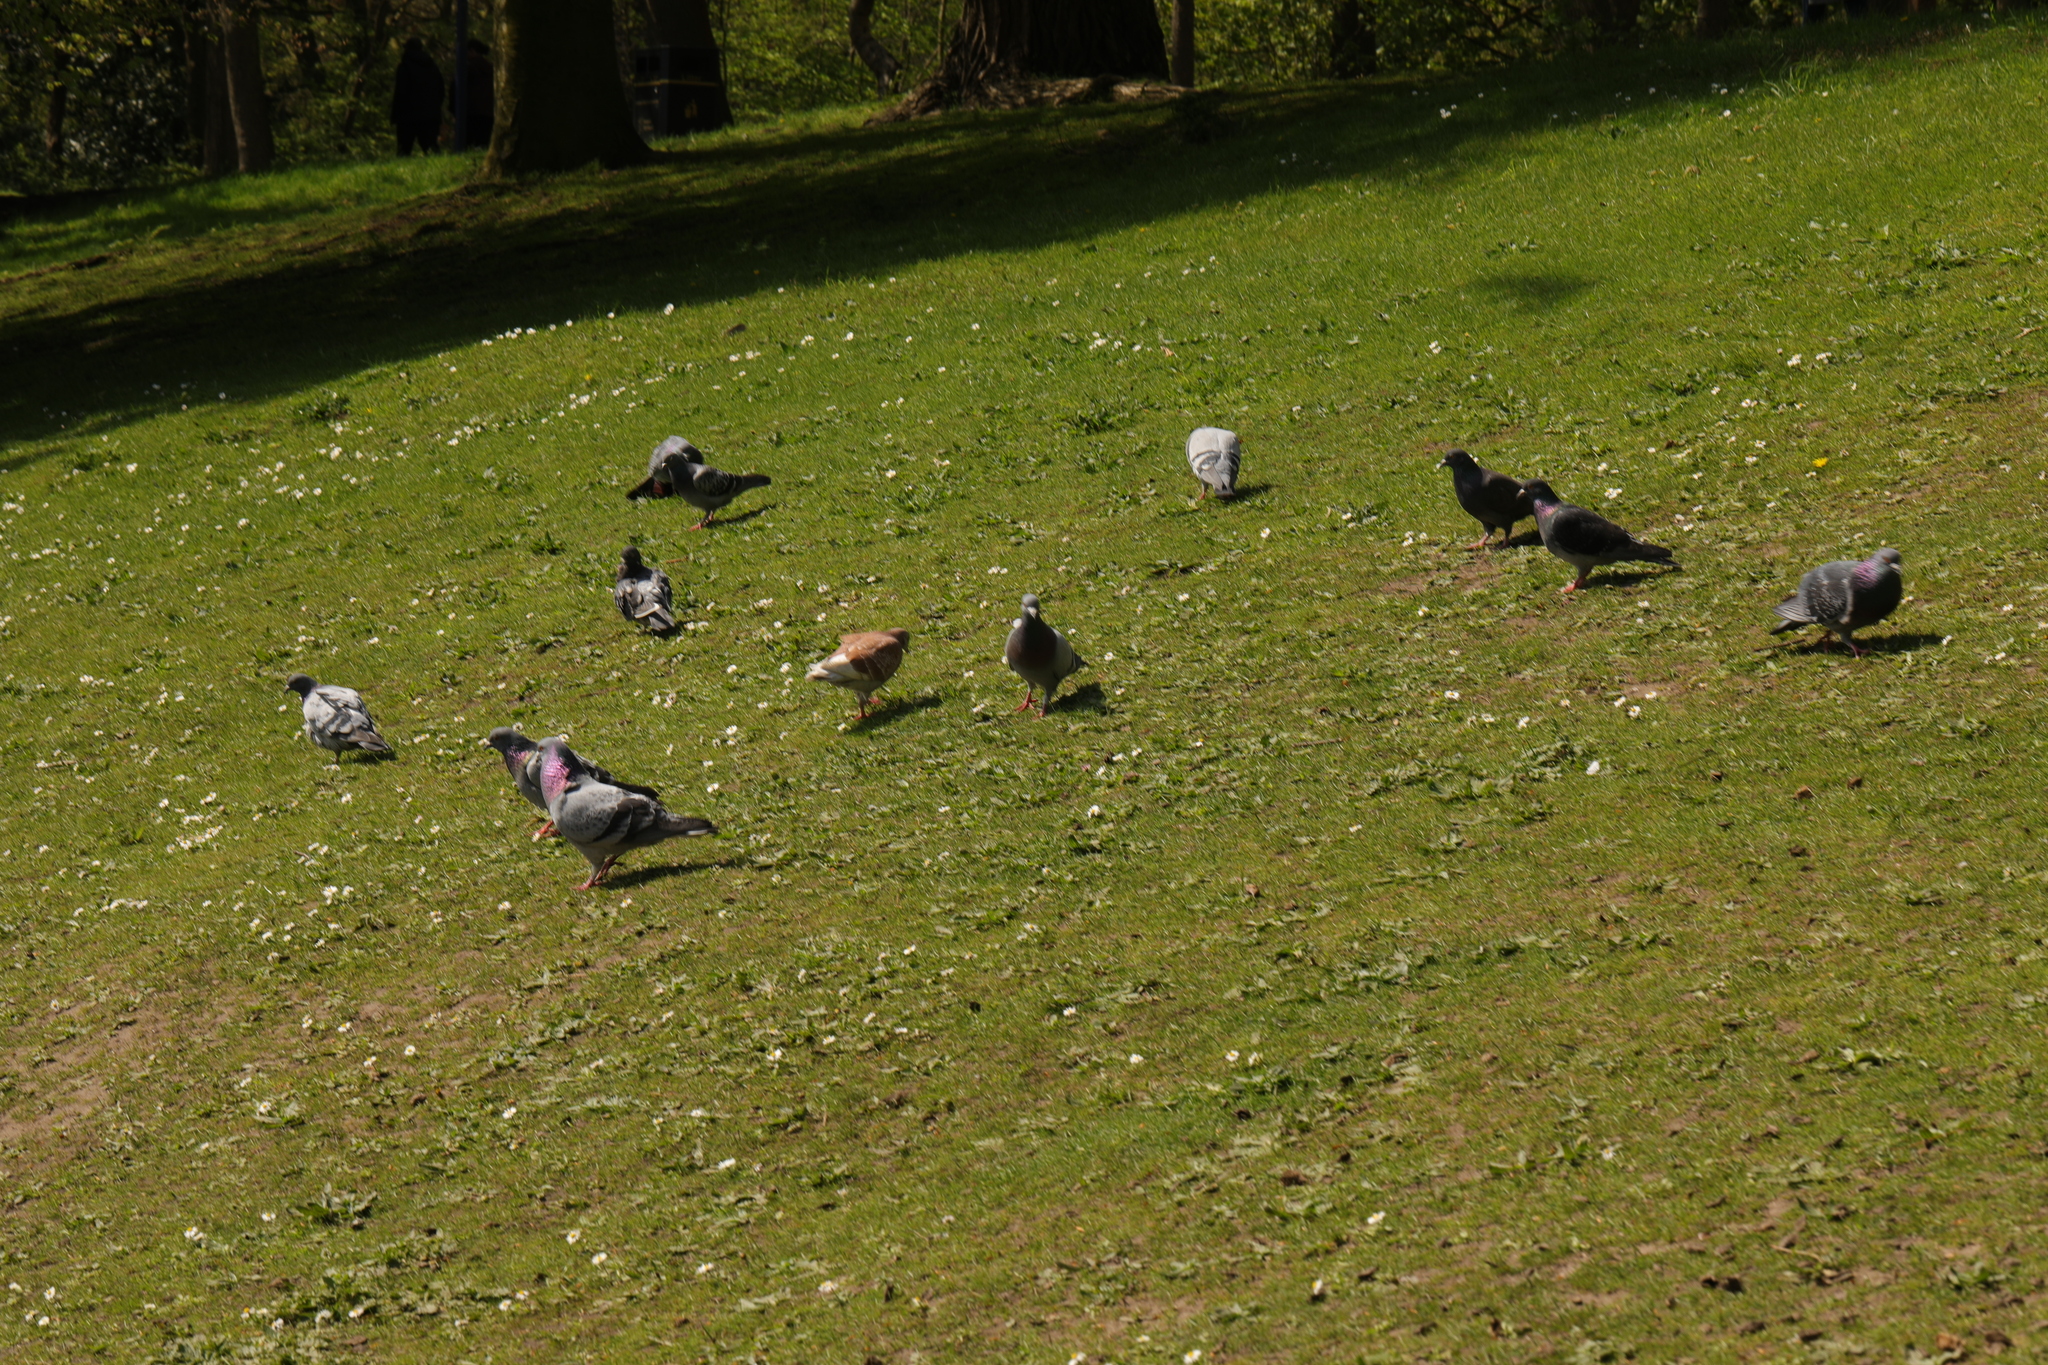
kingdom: Animalia
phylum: Chordata
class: Aves
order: Columbiformes
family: Columbidae
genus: Columba
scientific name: Columba livia
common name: Rock pigeon
